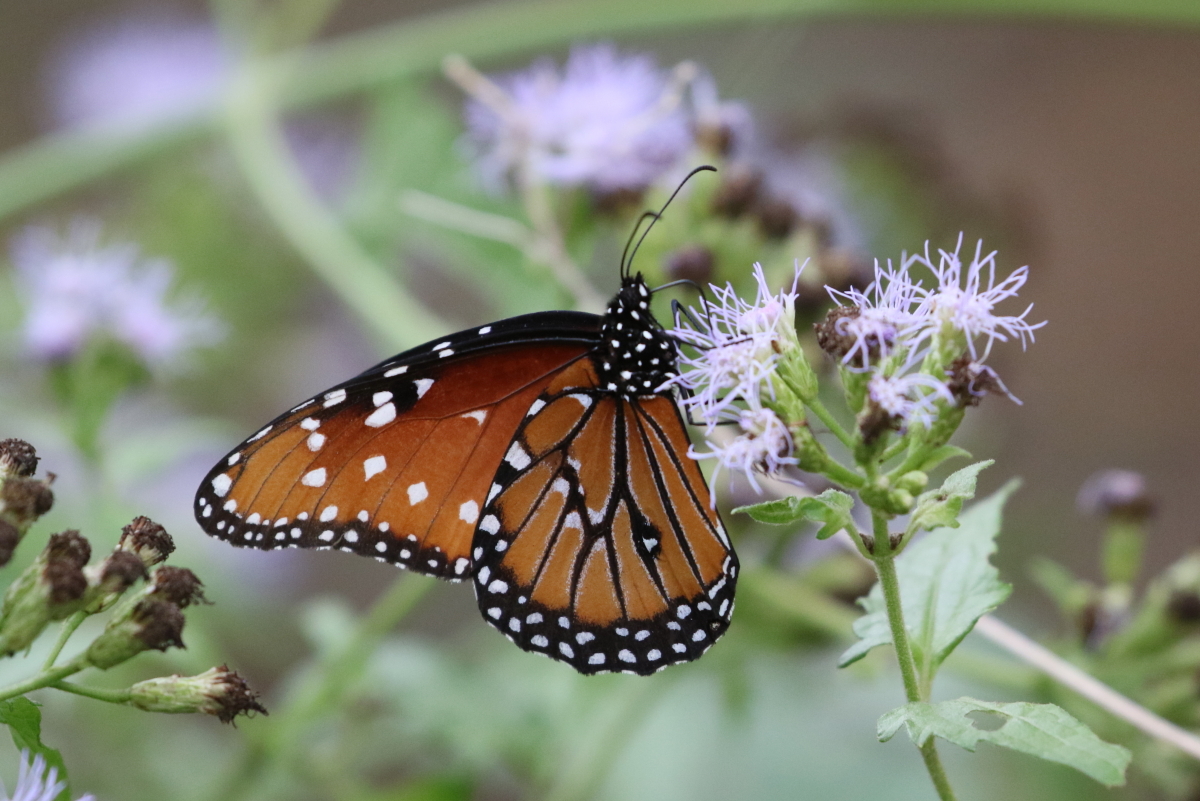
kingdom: Animalia
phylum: Arthropoda
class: Insecta
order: Lepidoptera
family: Nymphalidae
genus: Danaus
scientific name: Danaus gilippus
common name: Queen
